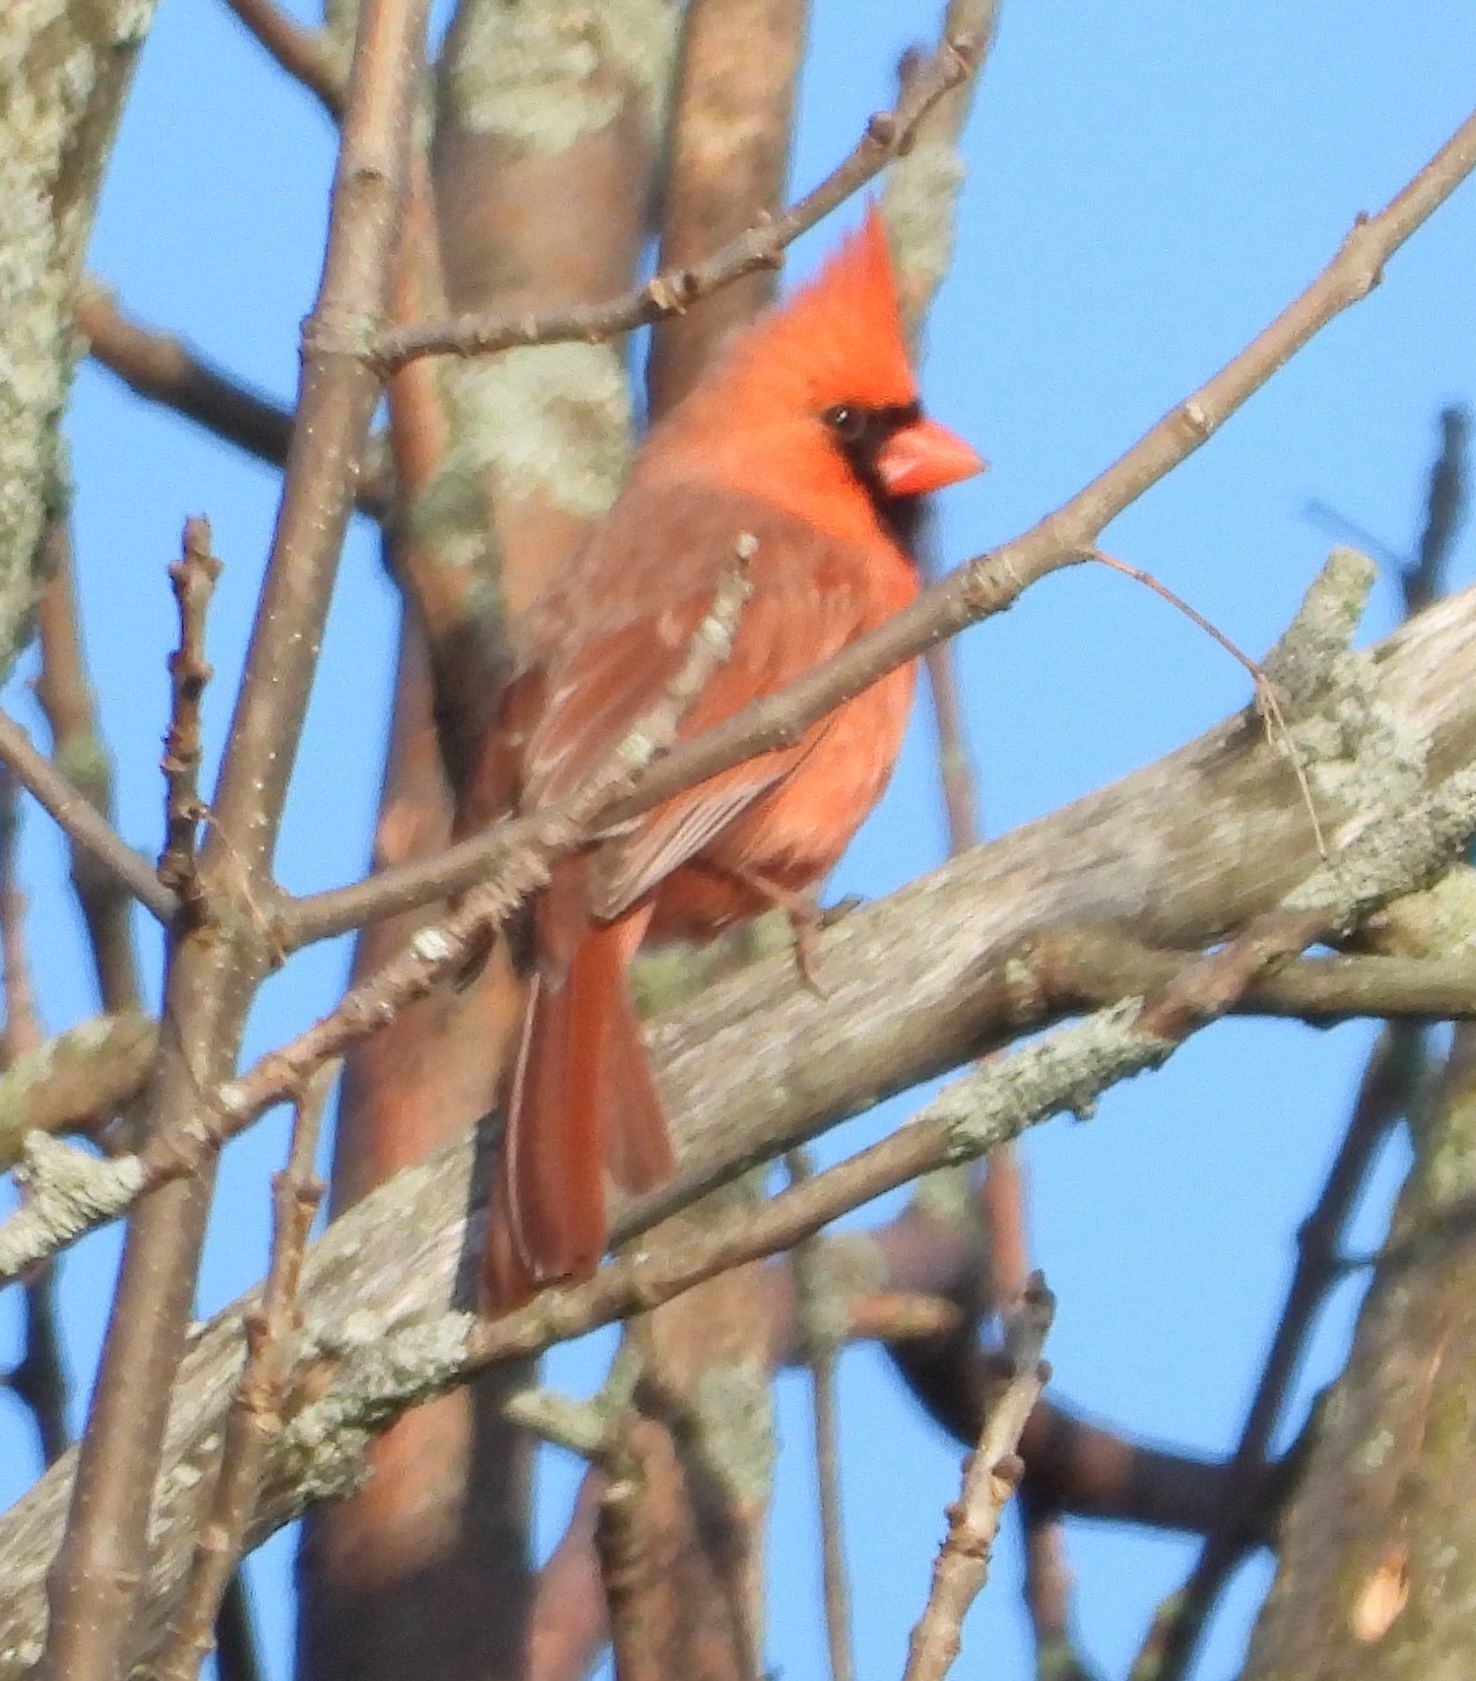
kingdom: Animalia
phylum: Chordata
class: Aves
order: Passeriformes
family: Cardinalidae
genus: Cardinalis
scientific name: Cardinalis cardinalis
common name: Northern cardinal
